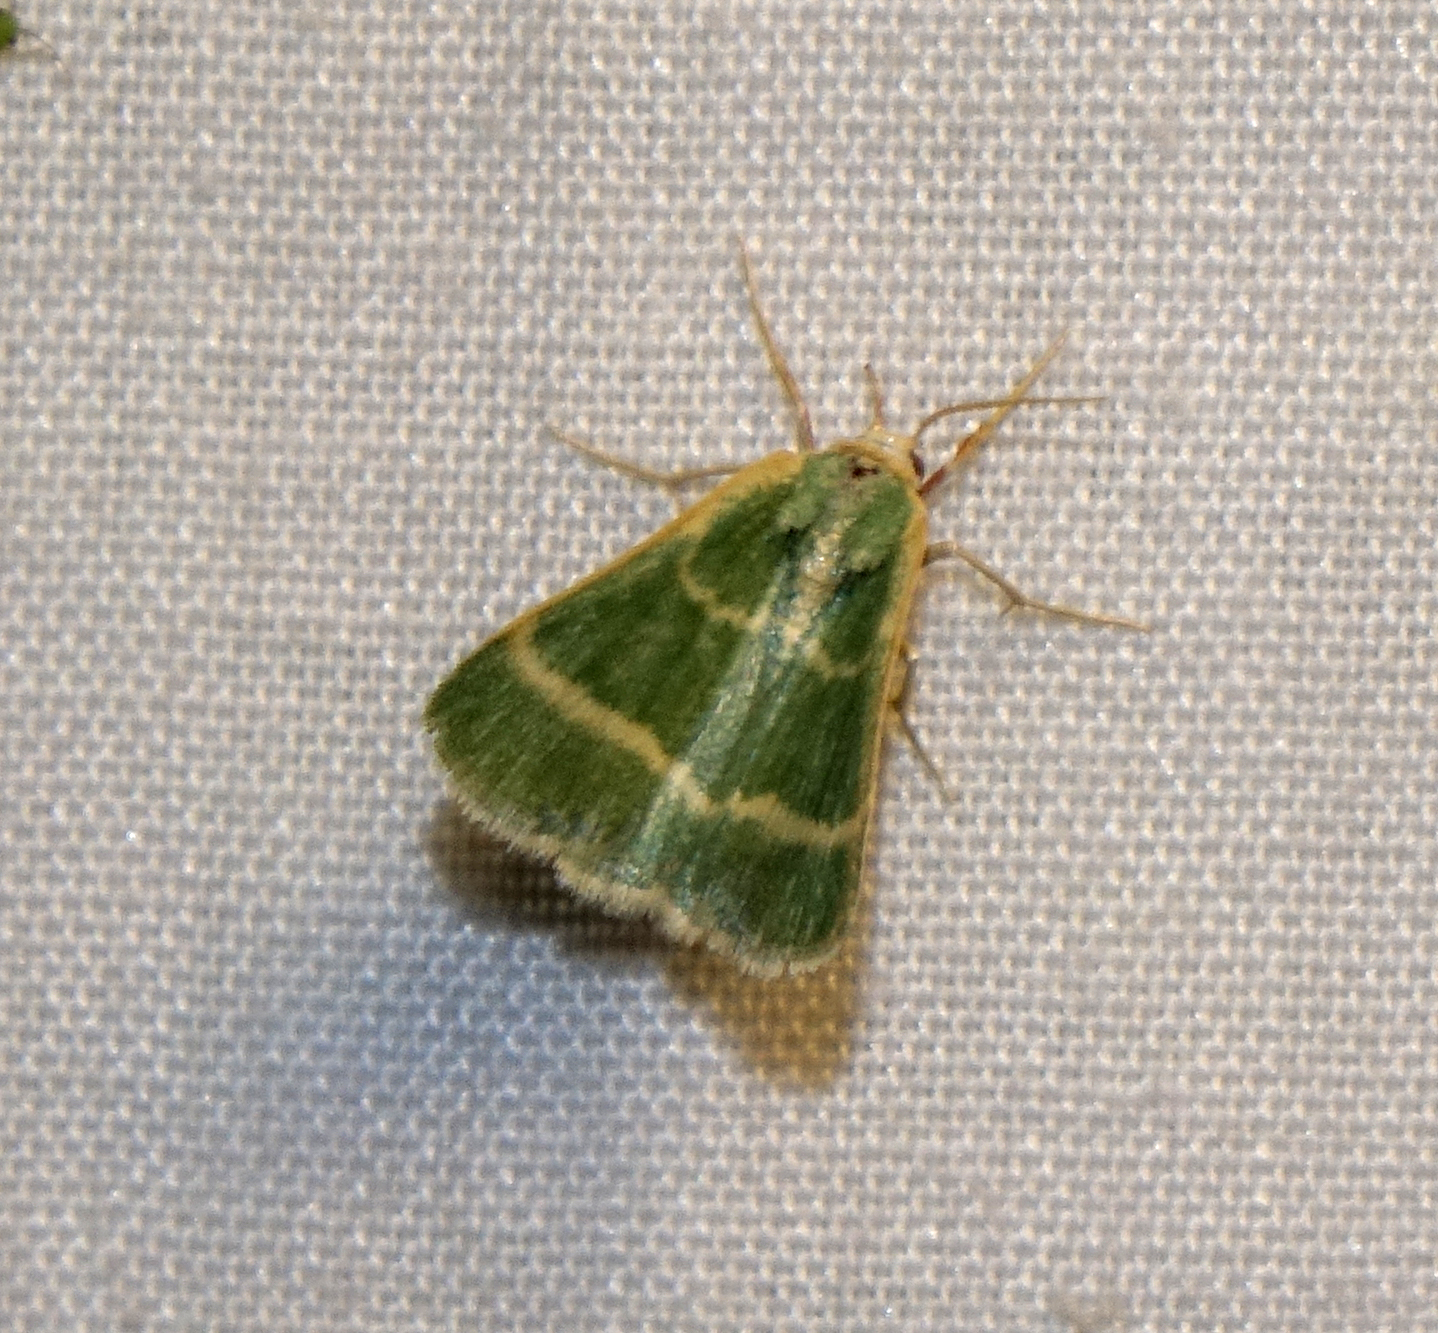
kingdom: Animalia
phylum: Arthropoda
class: Insecta
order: Lepidoptera
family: Geometridae
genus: Microloxia
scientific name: Microloxia herbaria
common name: Herb emerald
